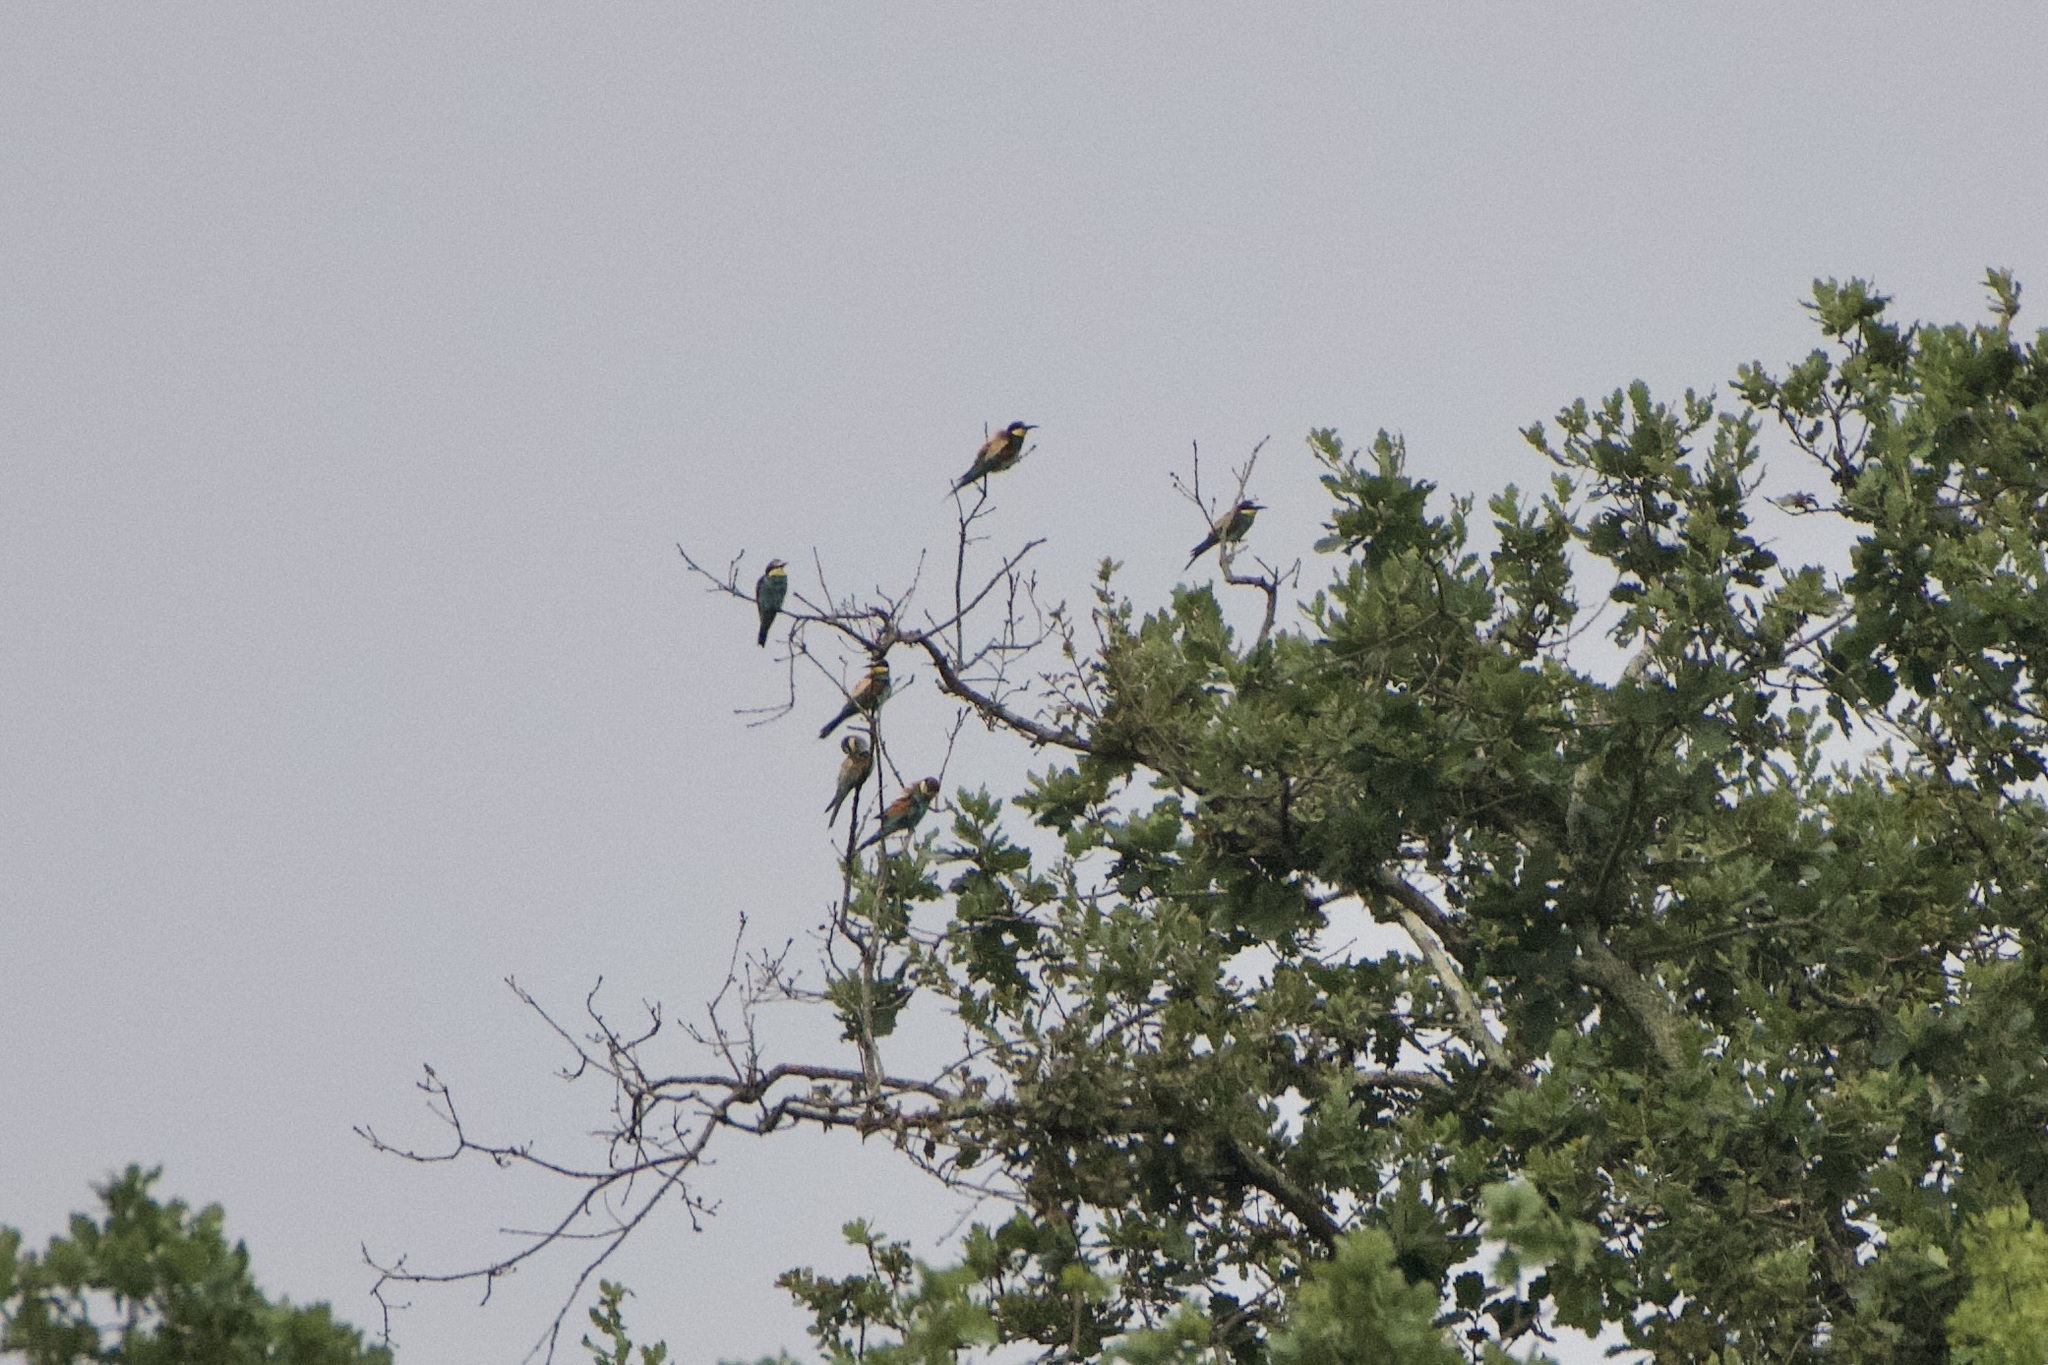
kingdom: Animalia
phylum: Chordata
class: Aves
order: Coraciiformes
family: Meropidae
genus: Merops
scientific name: Merops apiaster
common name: European bee-eater
